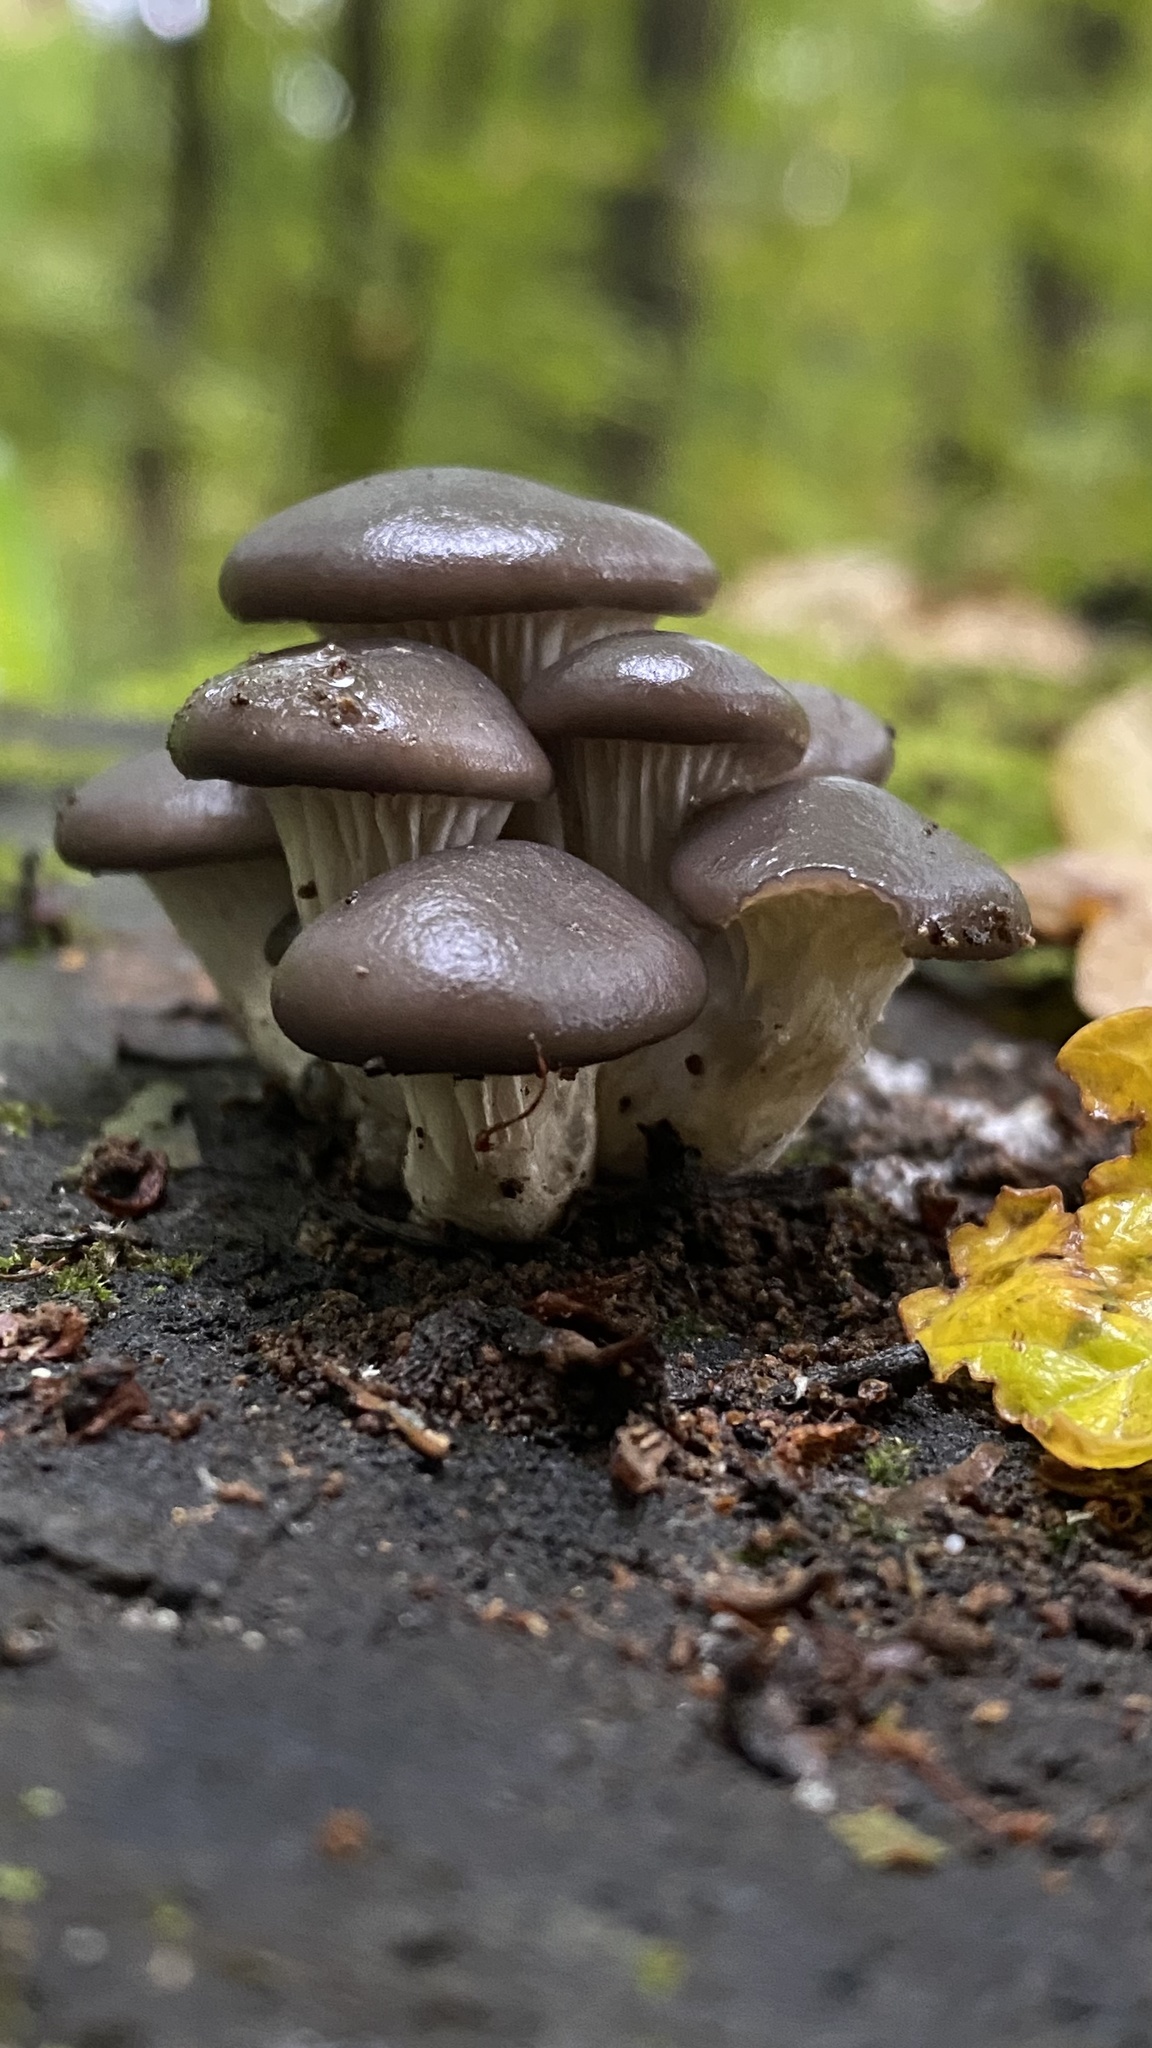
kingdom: Fungi
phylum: Basidiomycota
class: Agaricomycetes
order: Agaricales
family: Pleurotaceae
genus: Pleurotus
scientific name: Pleurotus ostreatus
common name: Oyster mushroom
